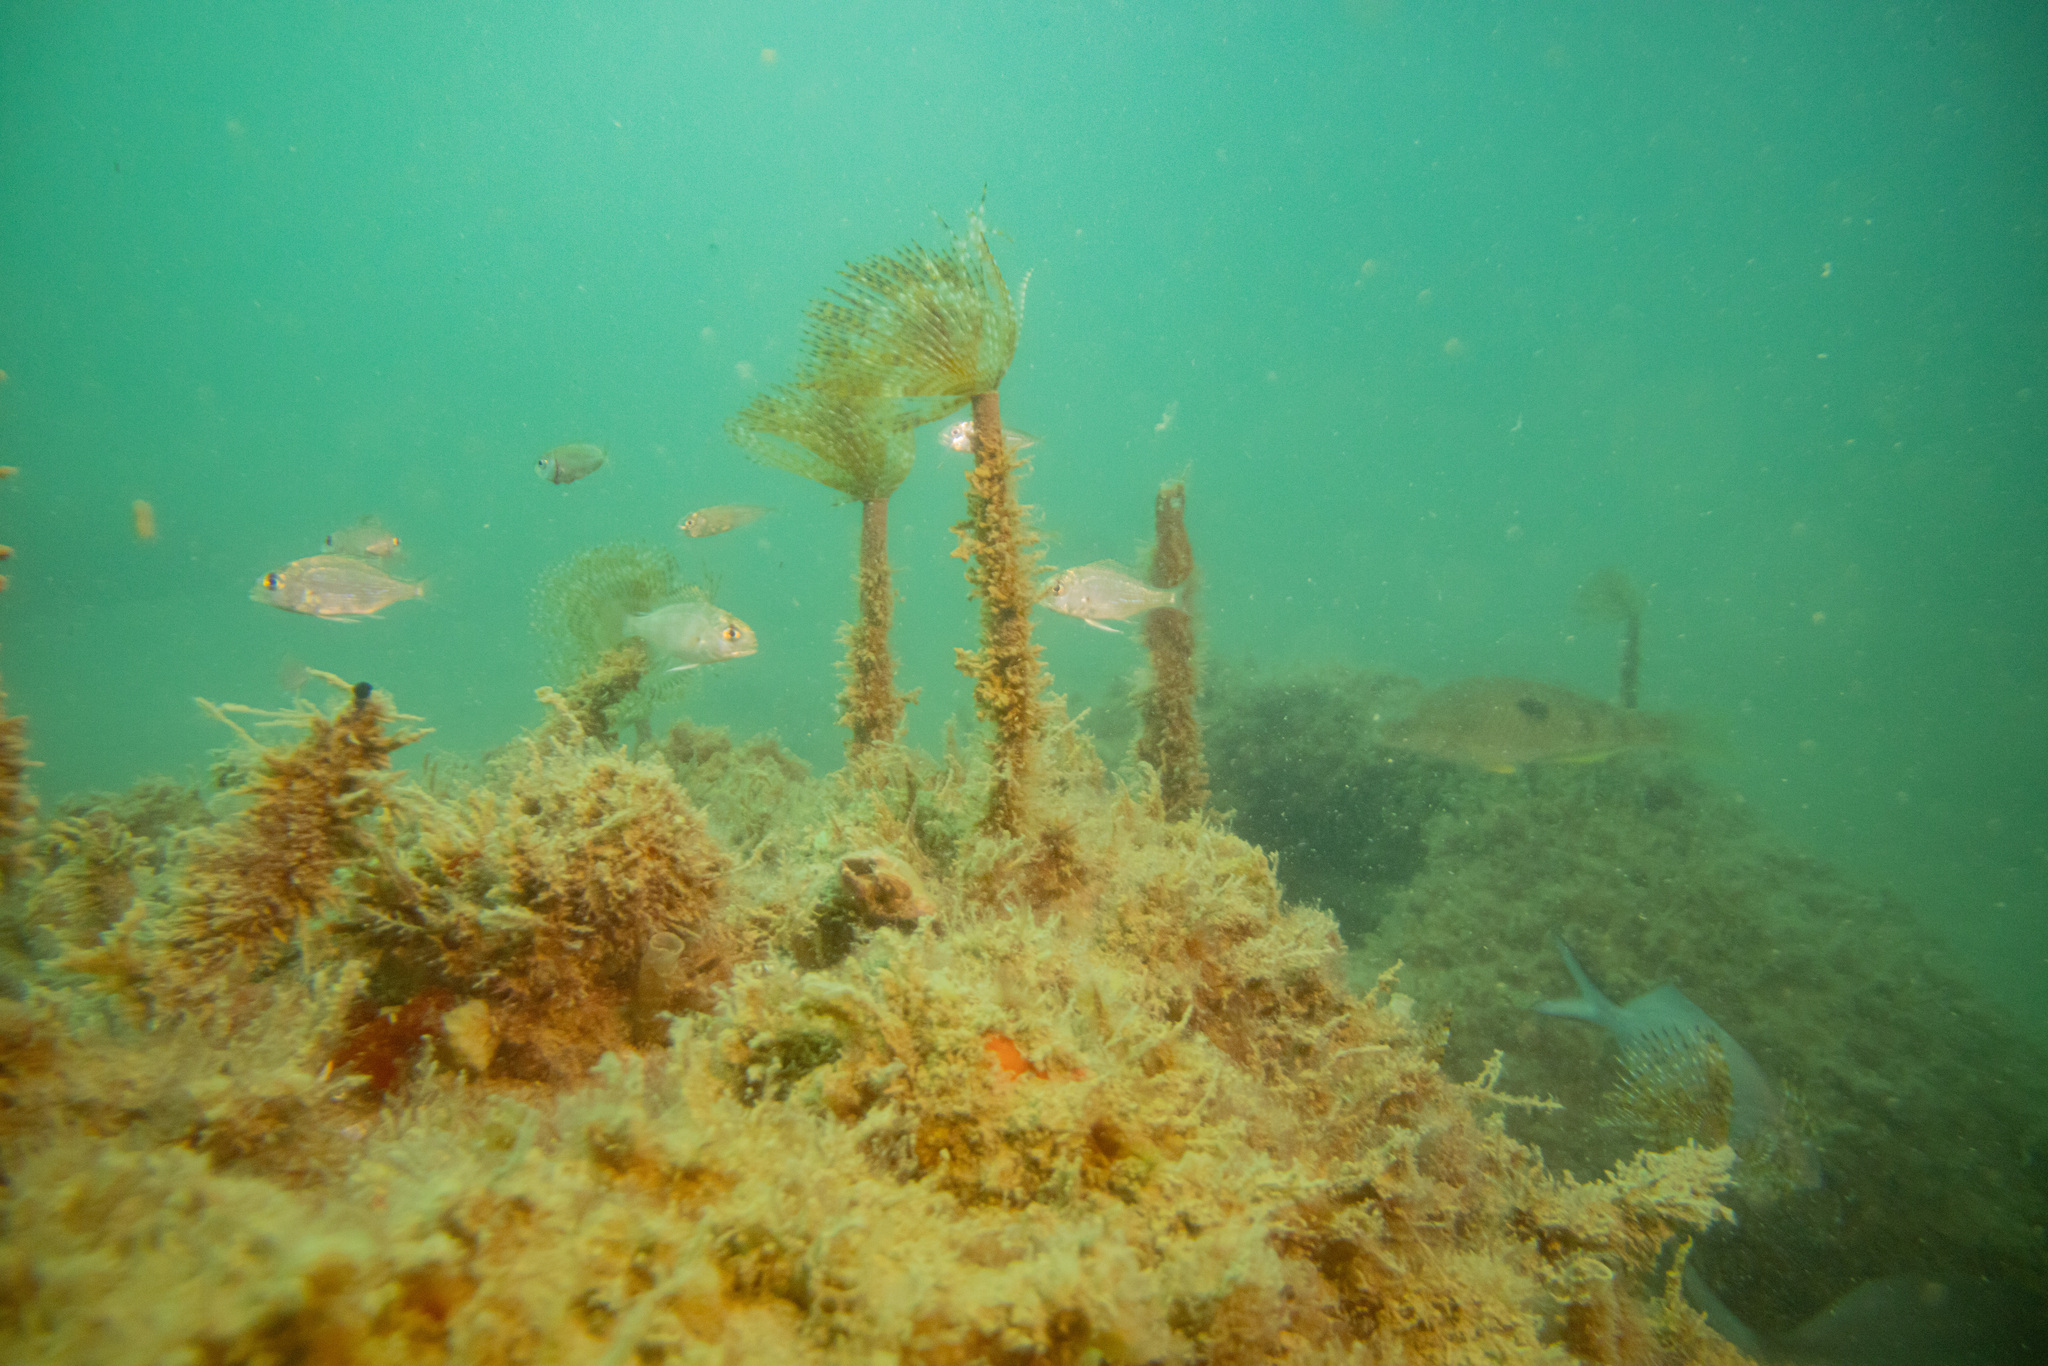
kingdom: Animalia
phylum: Chordata
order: Perciformes
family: Sparidae
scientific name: Sparidae
